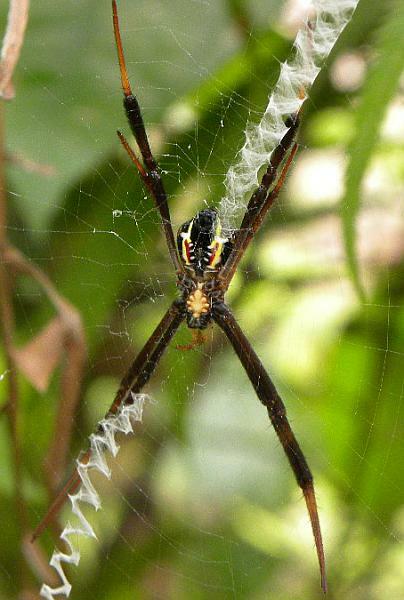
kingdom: Animalia
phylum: Arthropoda
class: Arachnida
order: Araneae
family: Araneidae
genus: Argiope
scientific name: Argiope halmaherensis
